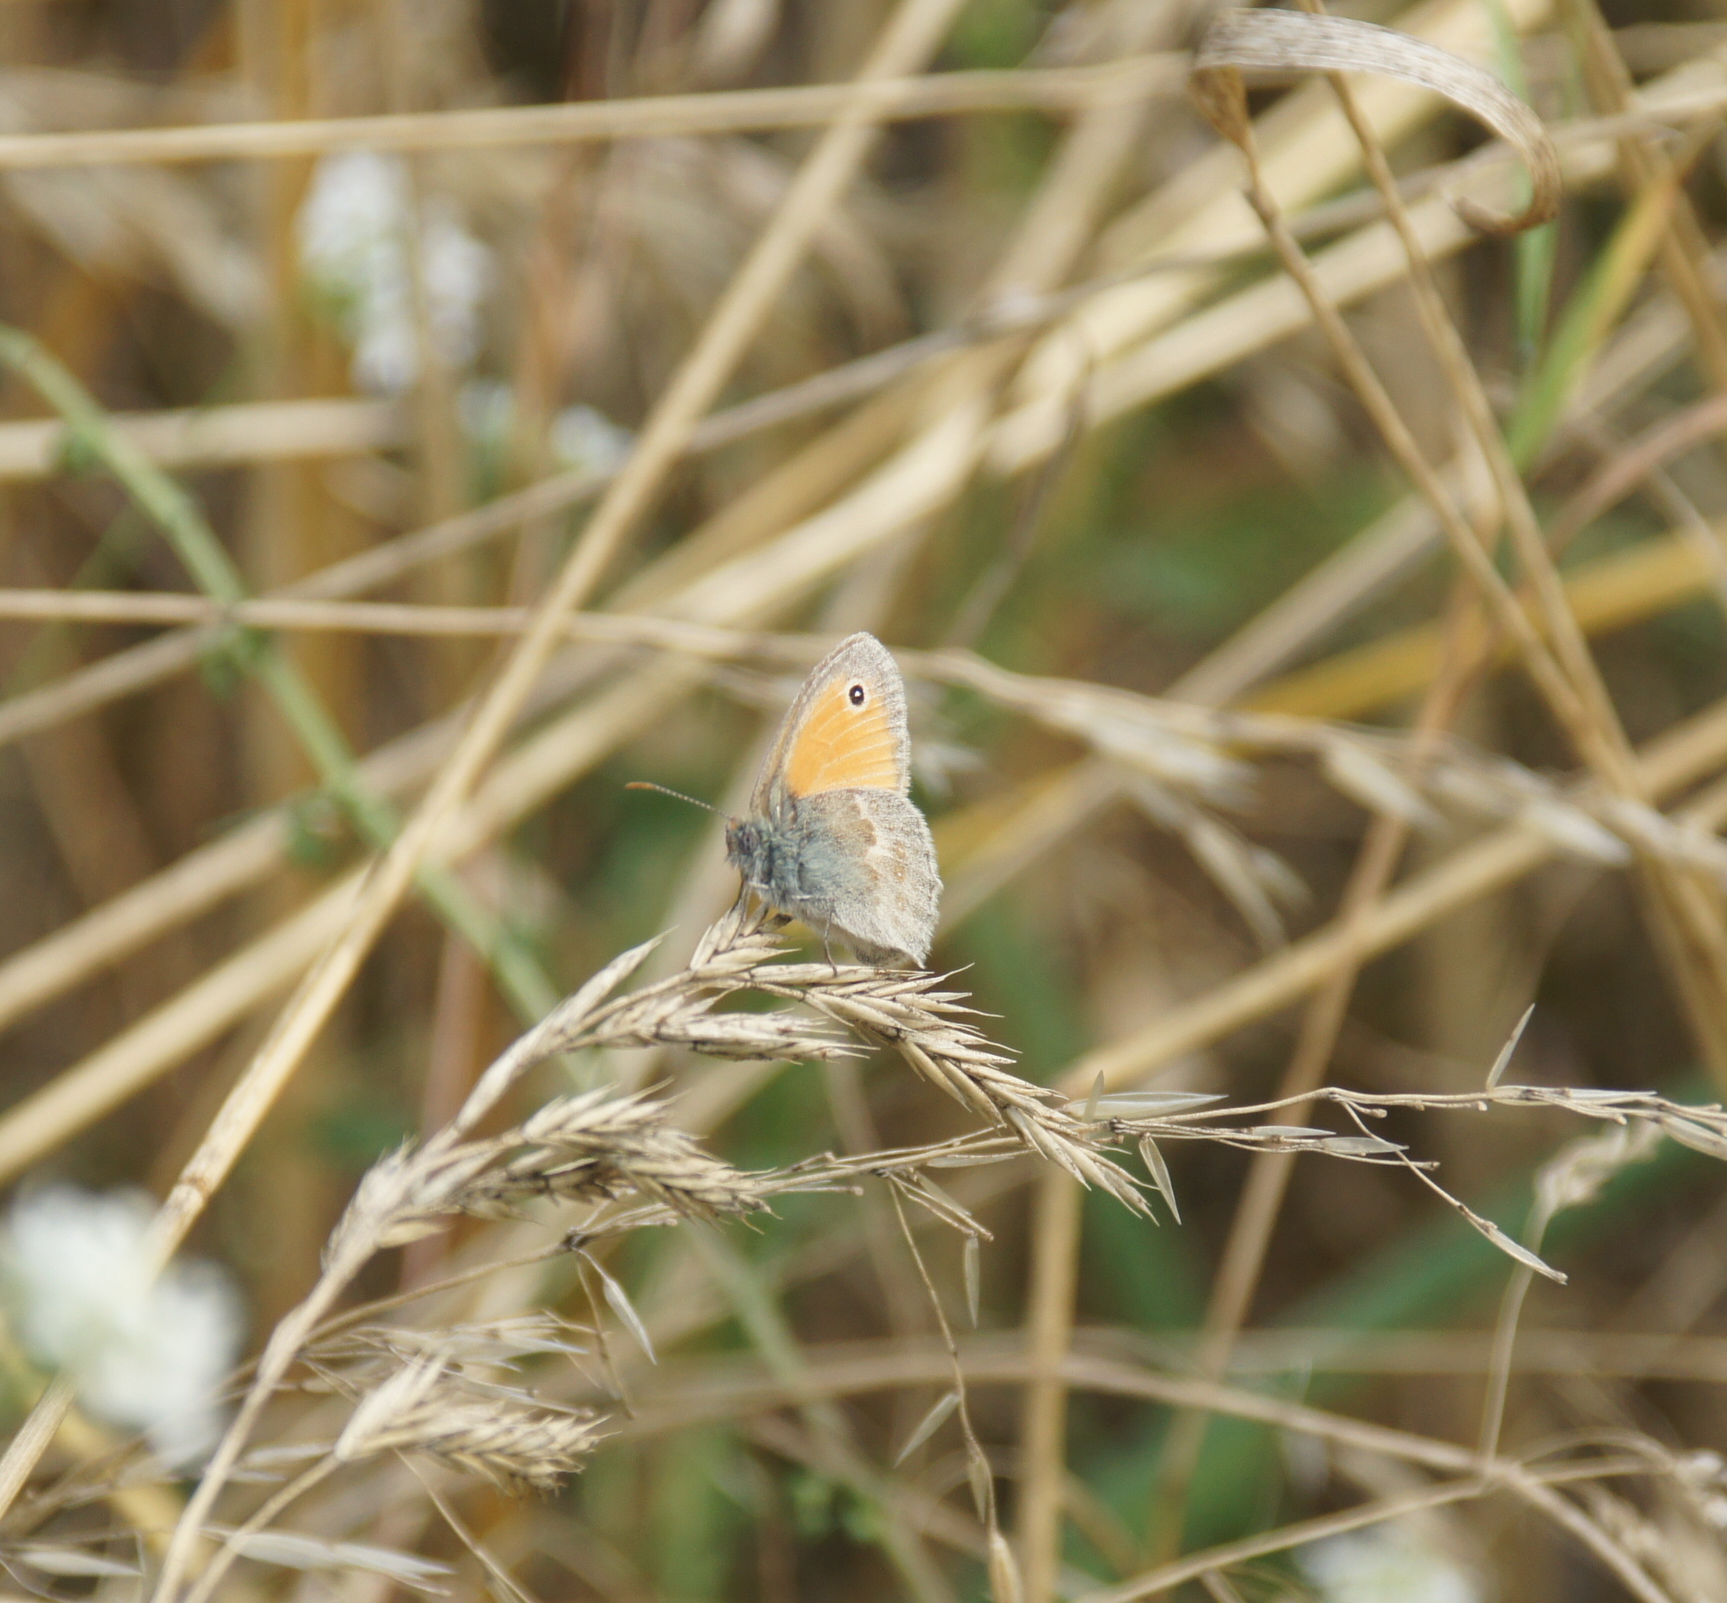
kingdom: Animalia
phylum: Arthropoda
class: Insecta
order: Lepidoptera
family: Nymphalidae
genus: Coenonympha
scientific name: Coenonympha pamphilus
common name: Small heath
